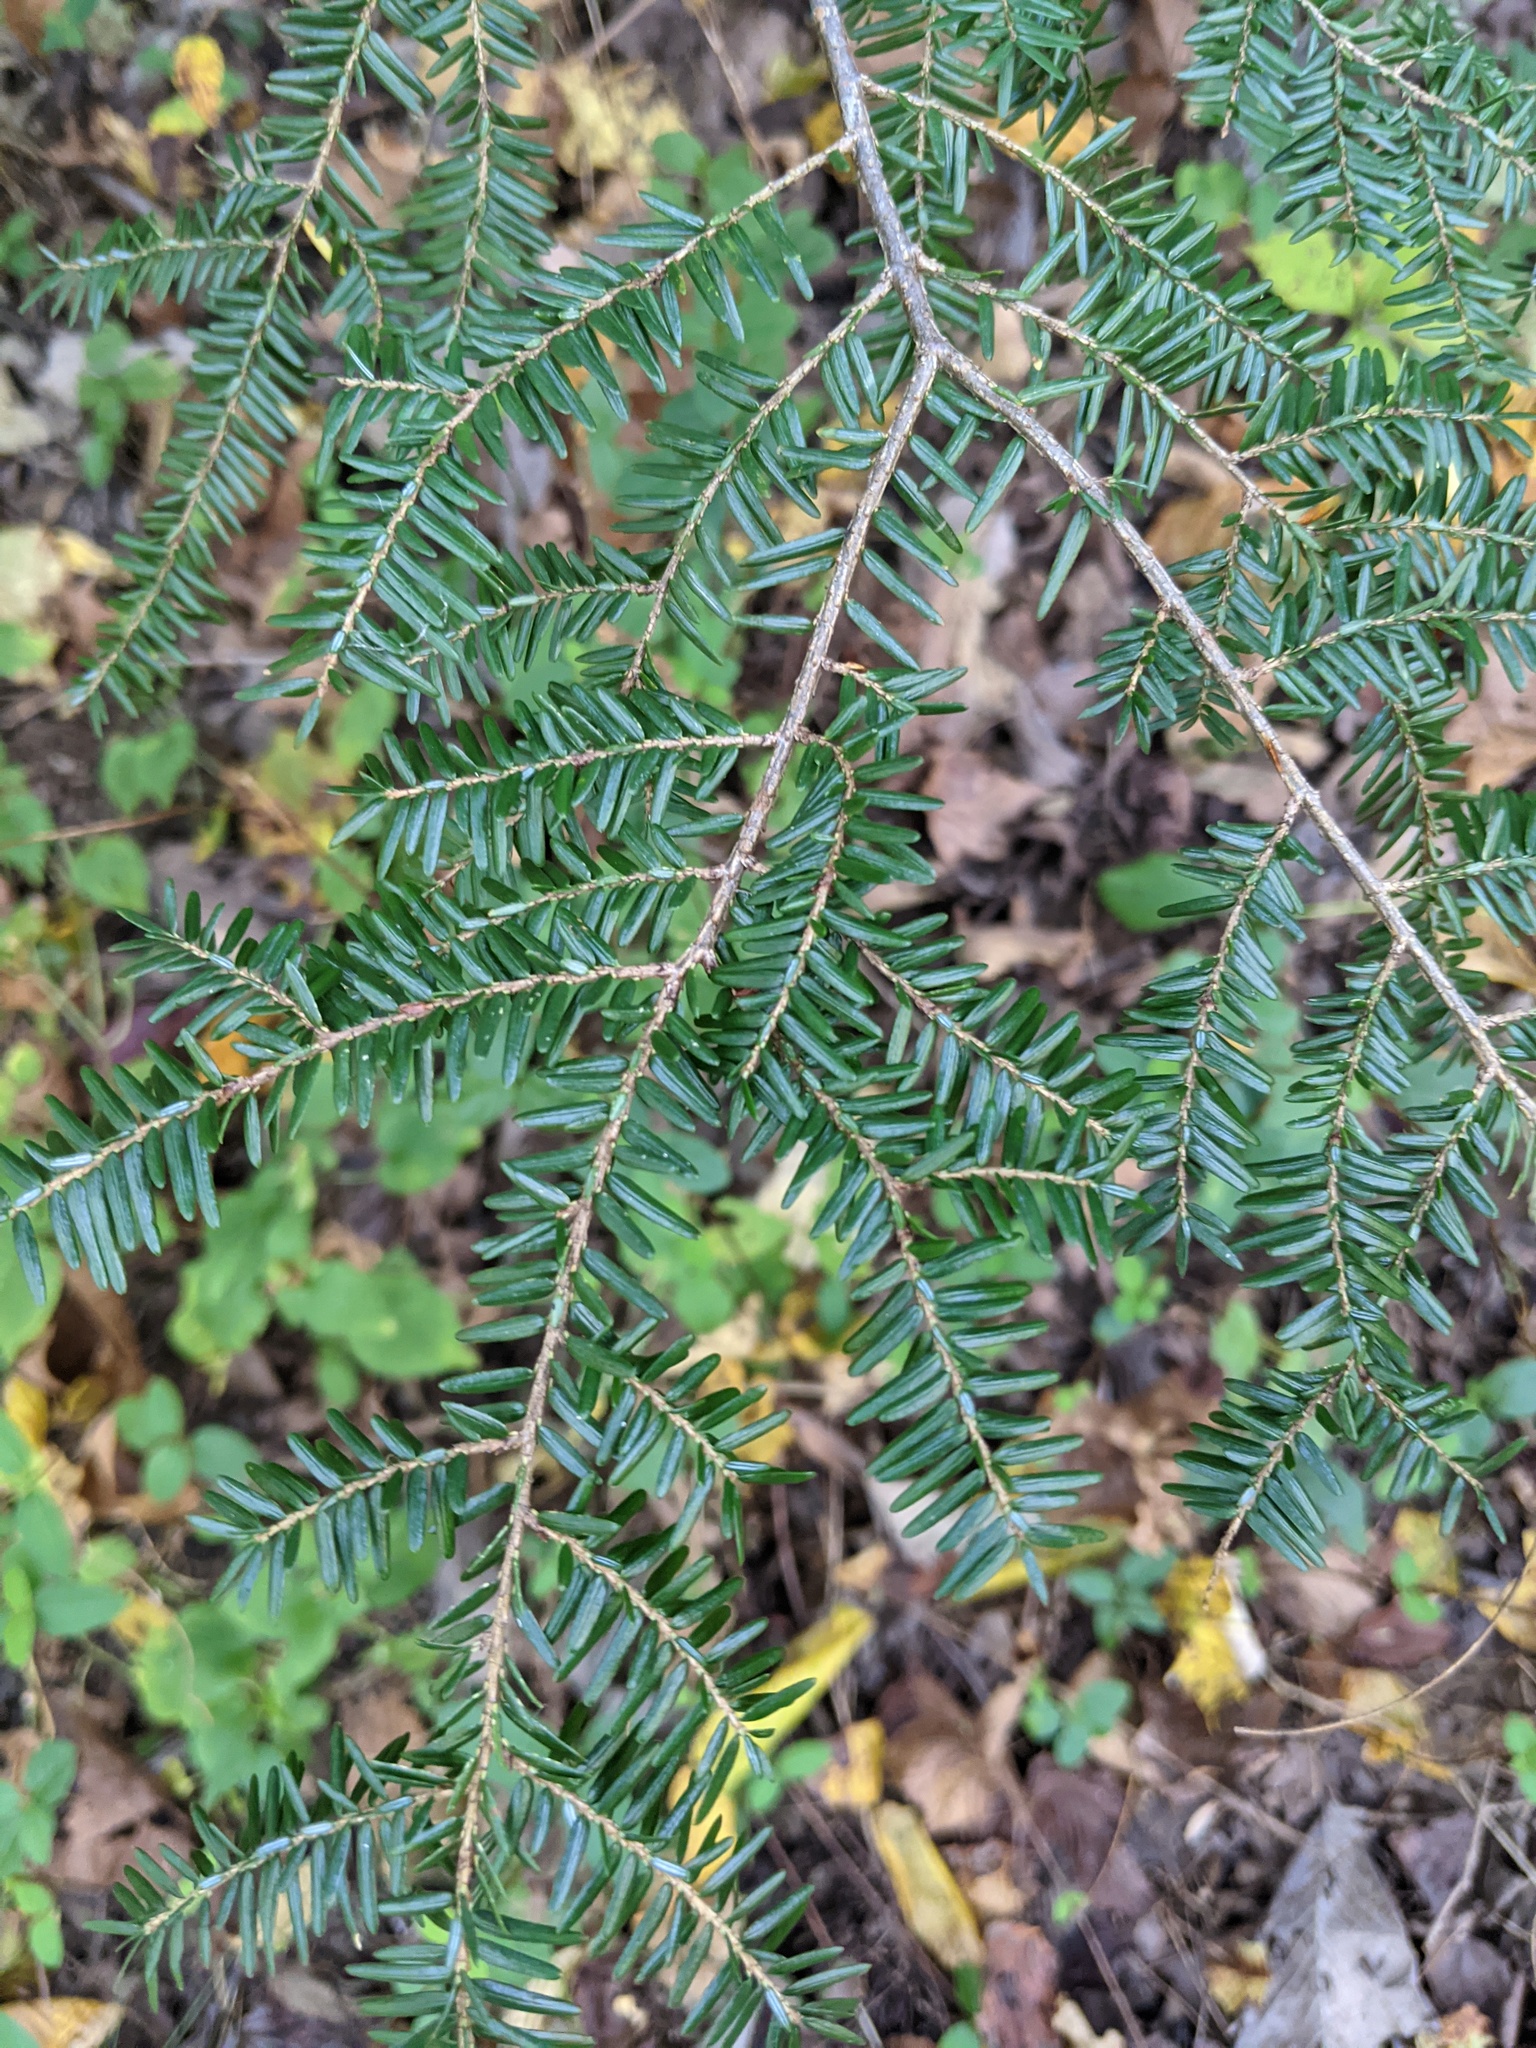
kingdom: Plantae
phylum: Tracheophyta
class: Pinopsida
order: Pinales
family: Pinaceae
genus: Tsuga
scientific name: Tsuga canadensis
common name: Eastern hemlock
